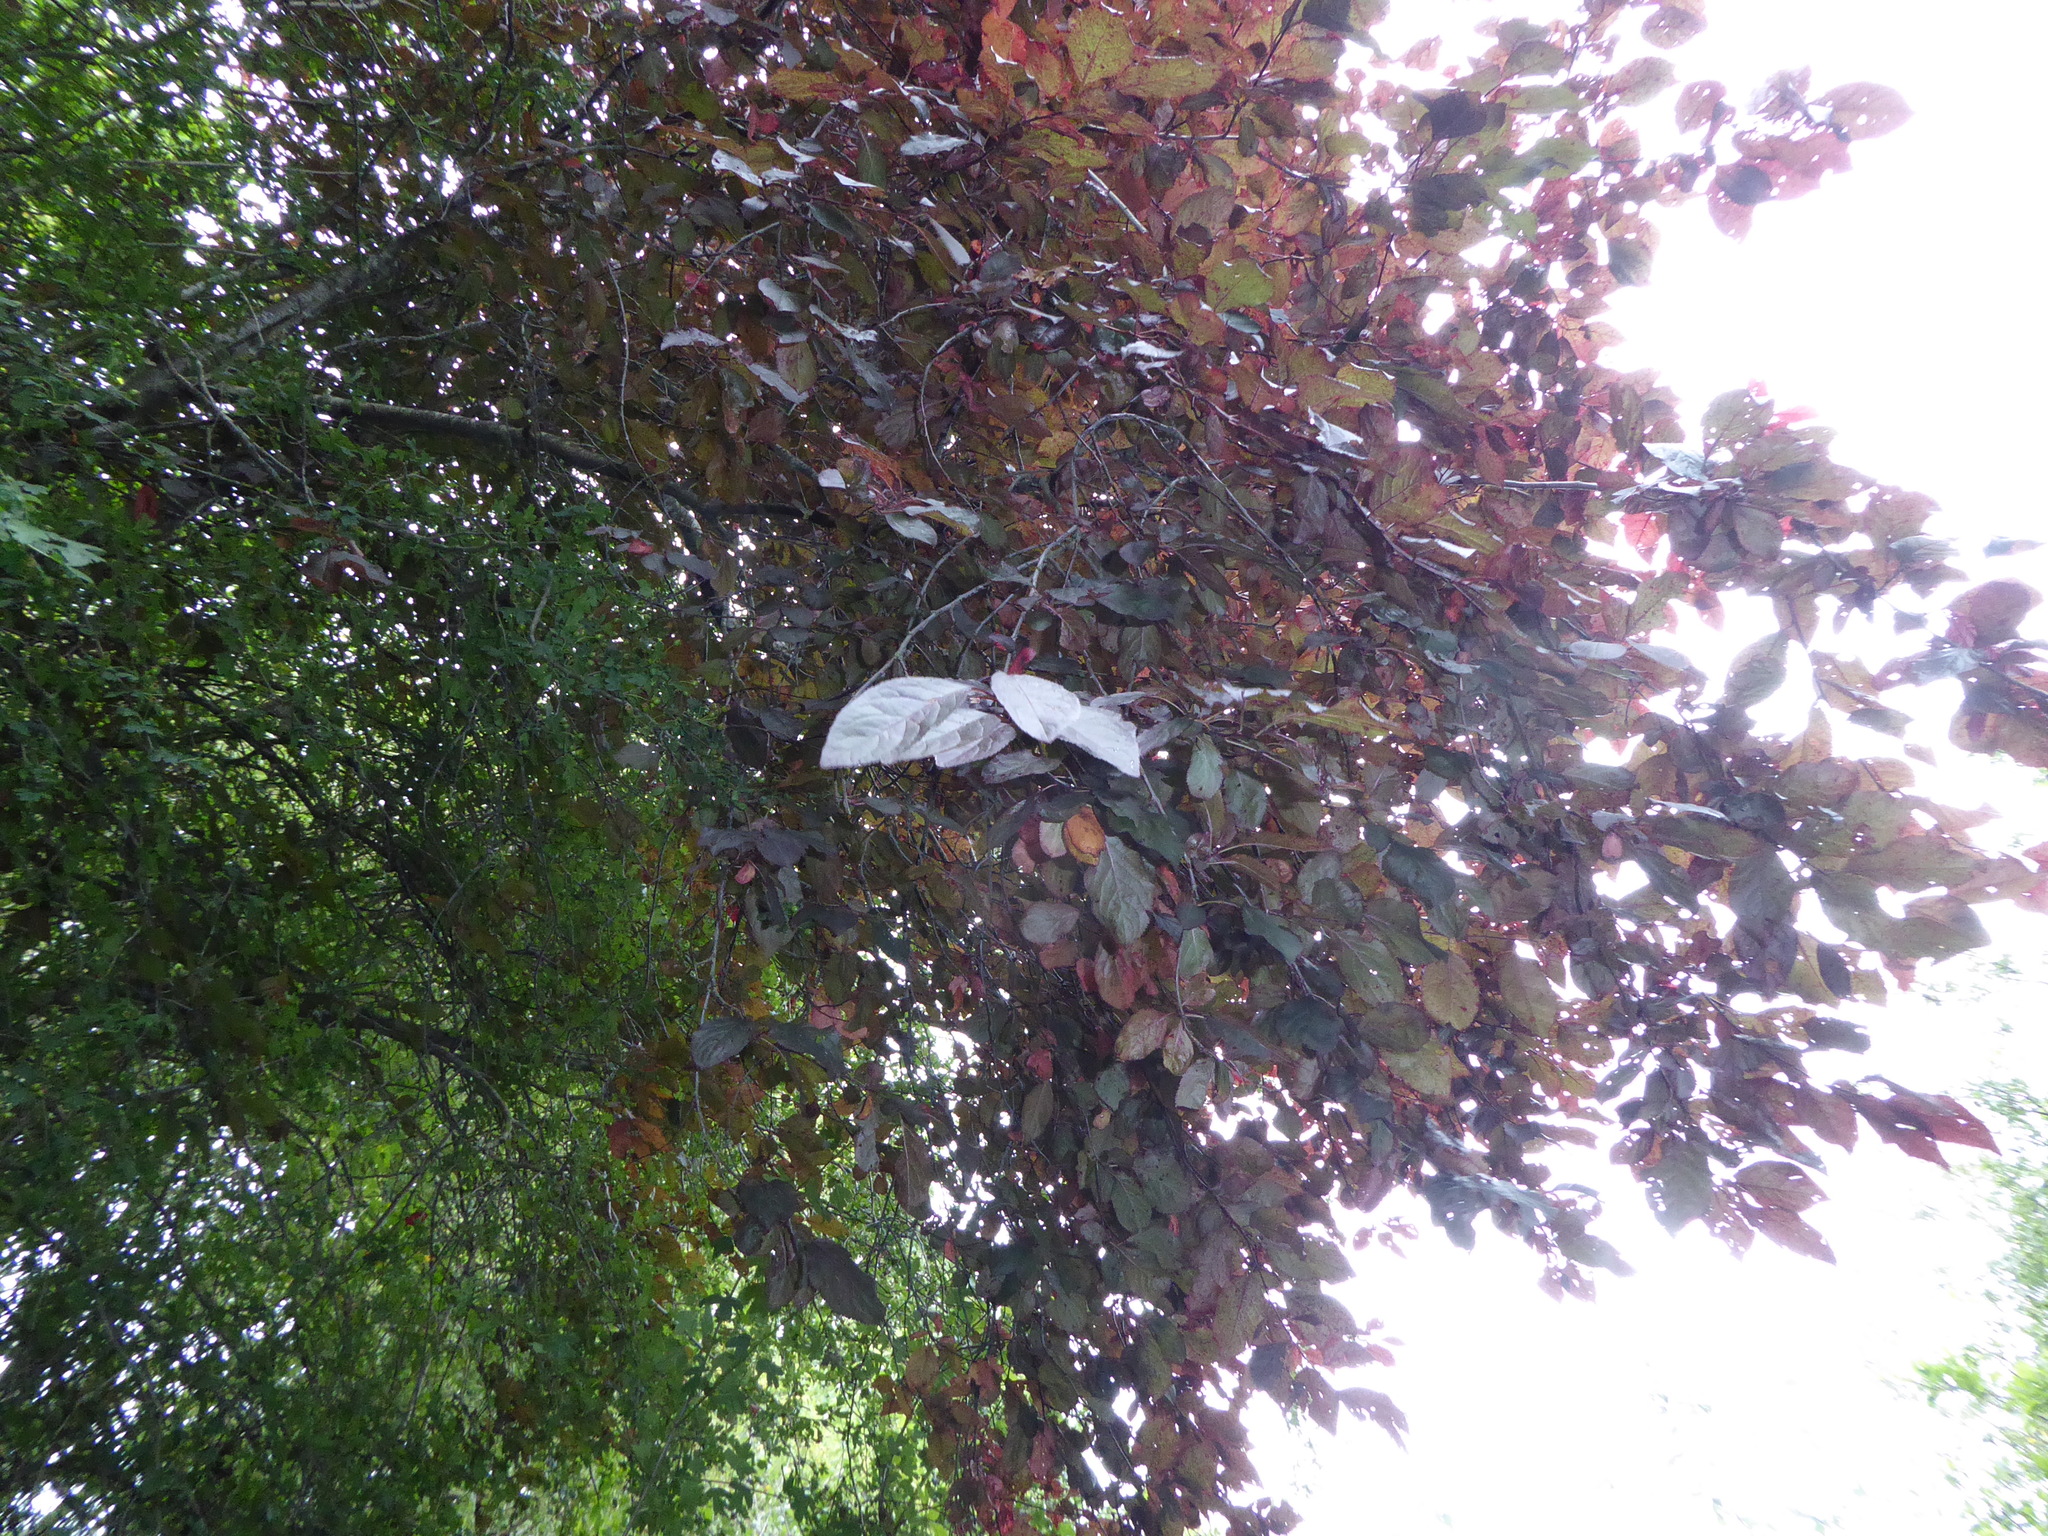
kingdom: Plantae
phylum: Tracheophyta
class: Magnoliopsida
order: Rosales
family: Rosaceae
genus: Prunus
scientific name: Prunus cerasifera
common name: Cherry plum
